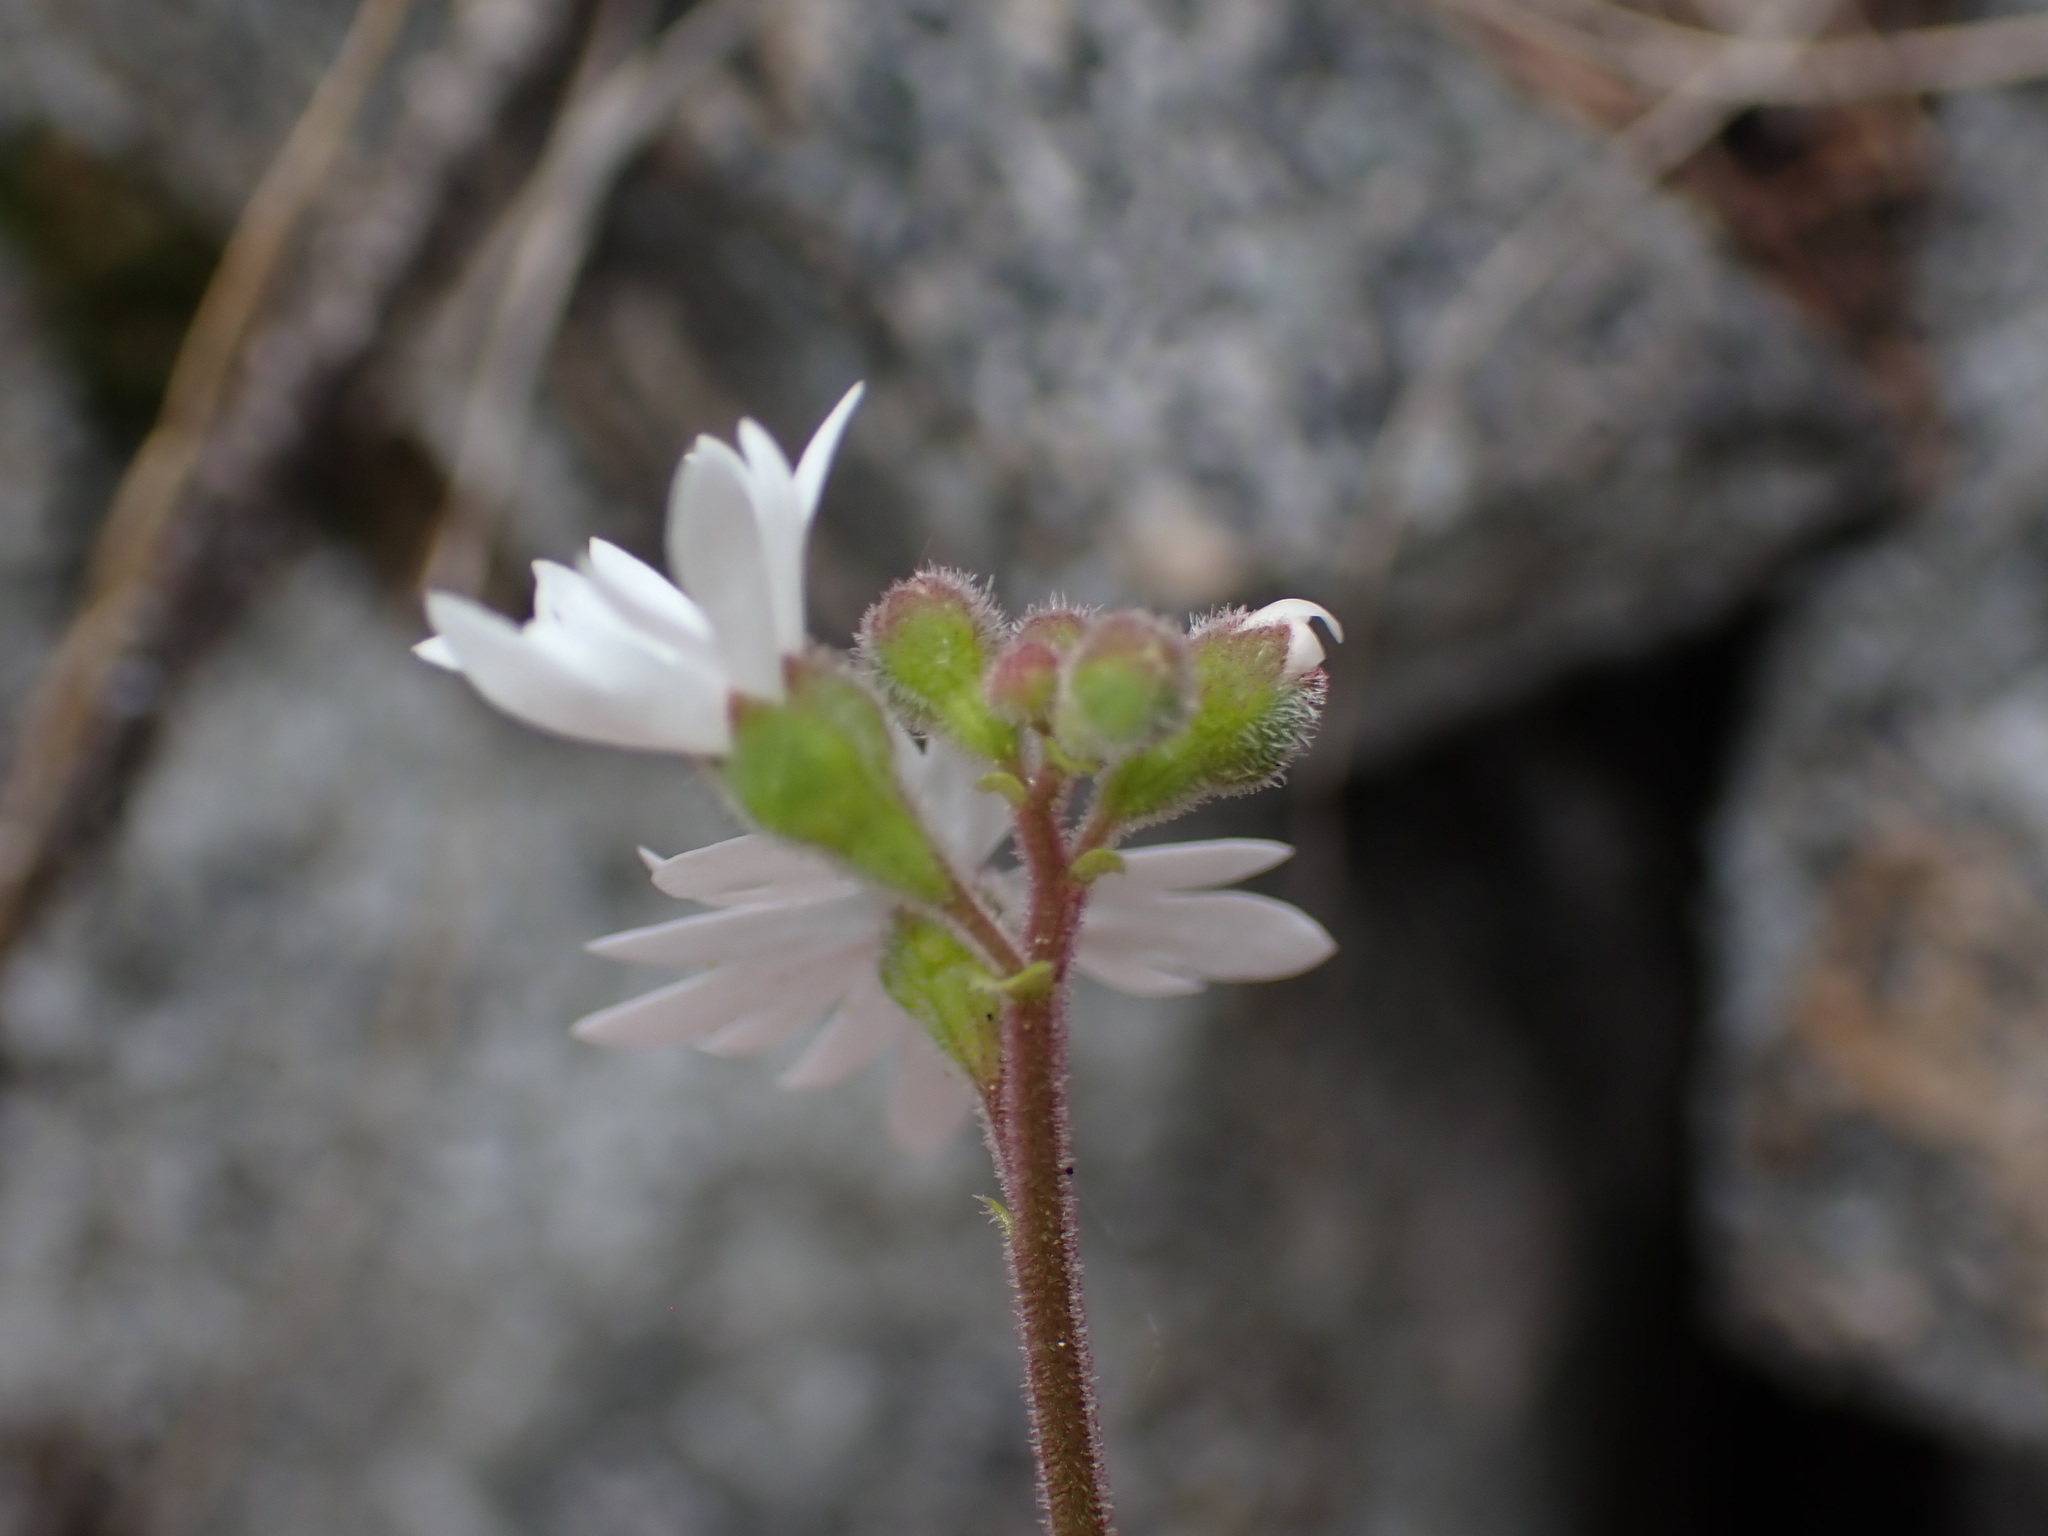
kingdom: Plantae
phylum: Tracheophyta
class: Magnoliopsida
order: Saxifragales
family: Saxifragaceae
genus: Lithophragma
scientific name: Lithophragma parviflorum
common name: Small-flowered fringe-cup
